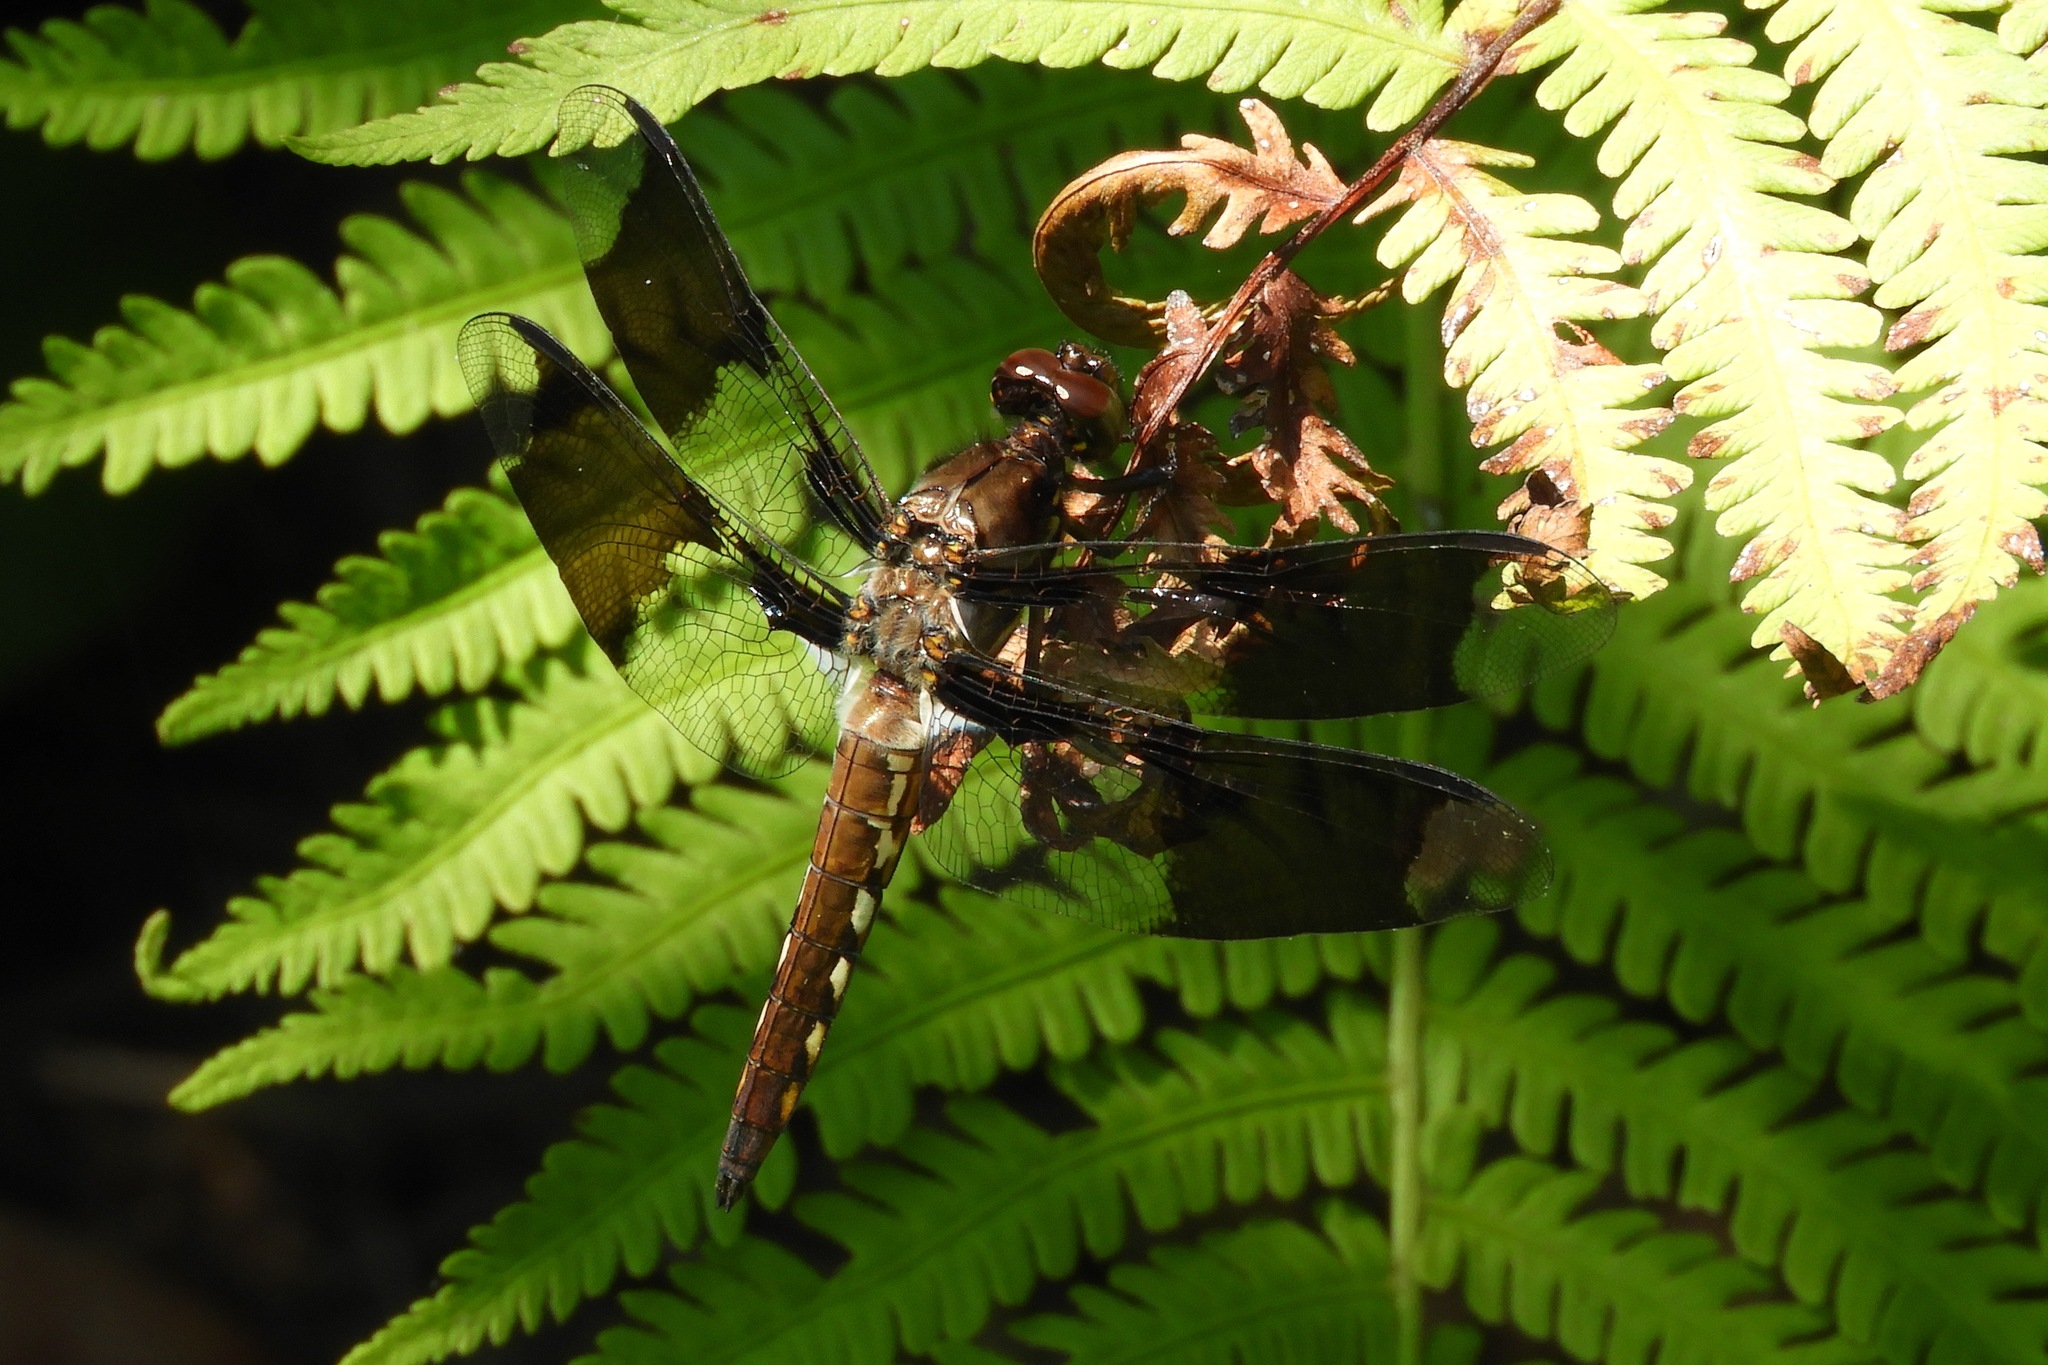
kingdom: Animalia
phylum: Arthropoda
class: Insecta
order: Odonata
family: Libellulidae
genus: Plathemis
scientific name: Plathemis lydia
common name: Common whitetail
